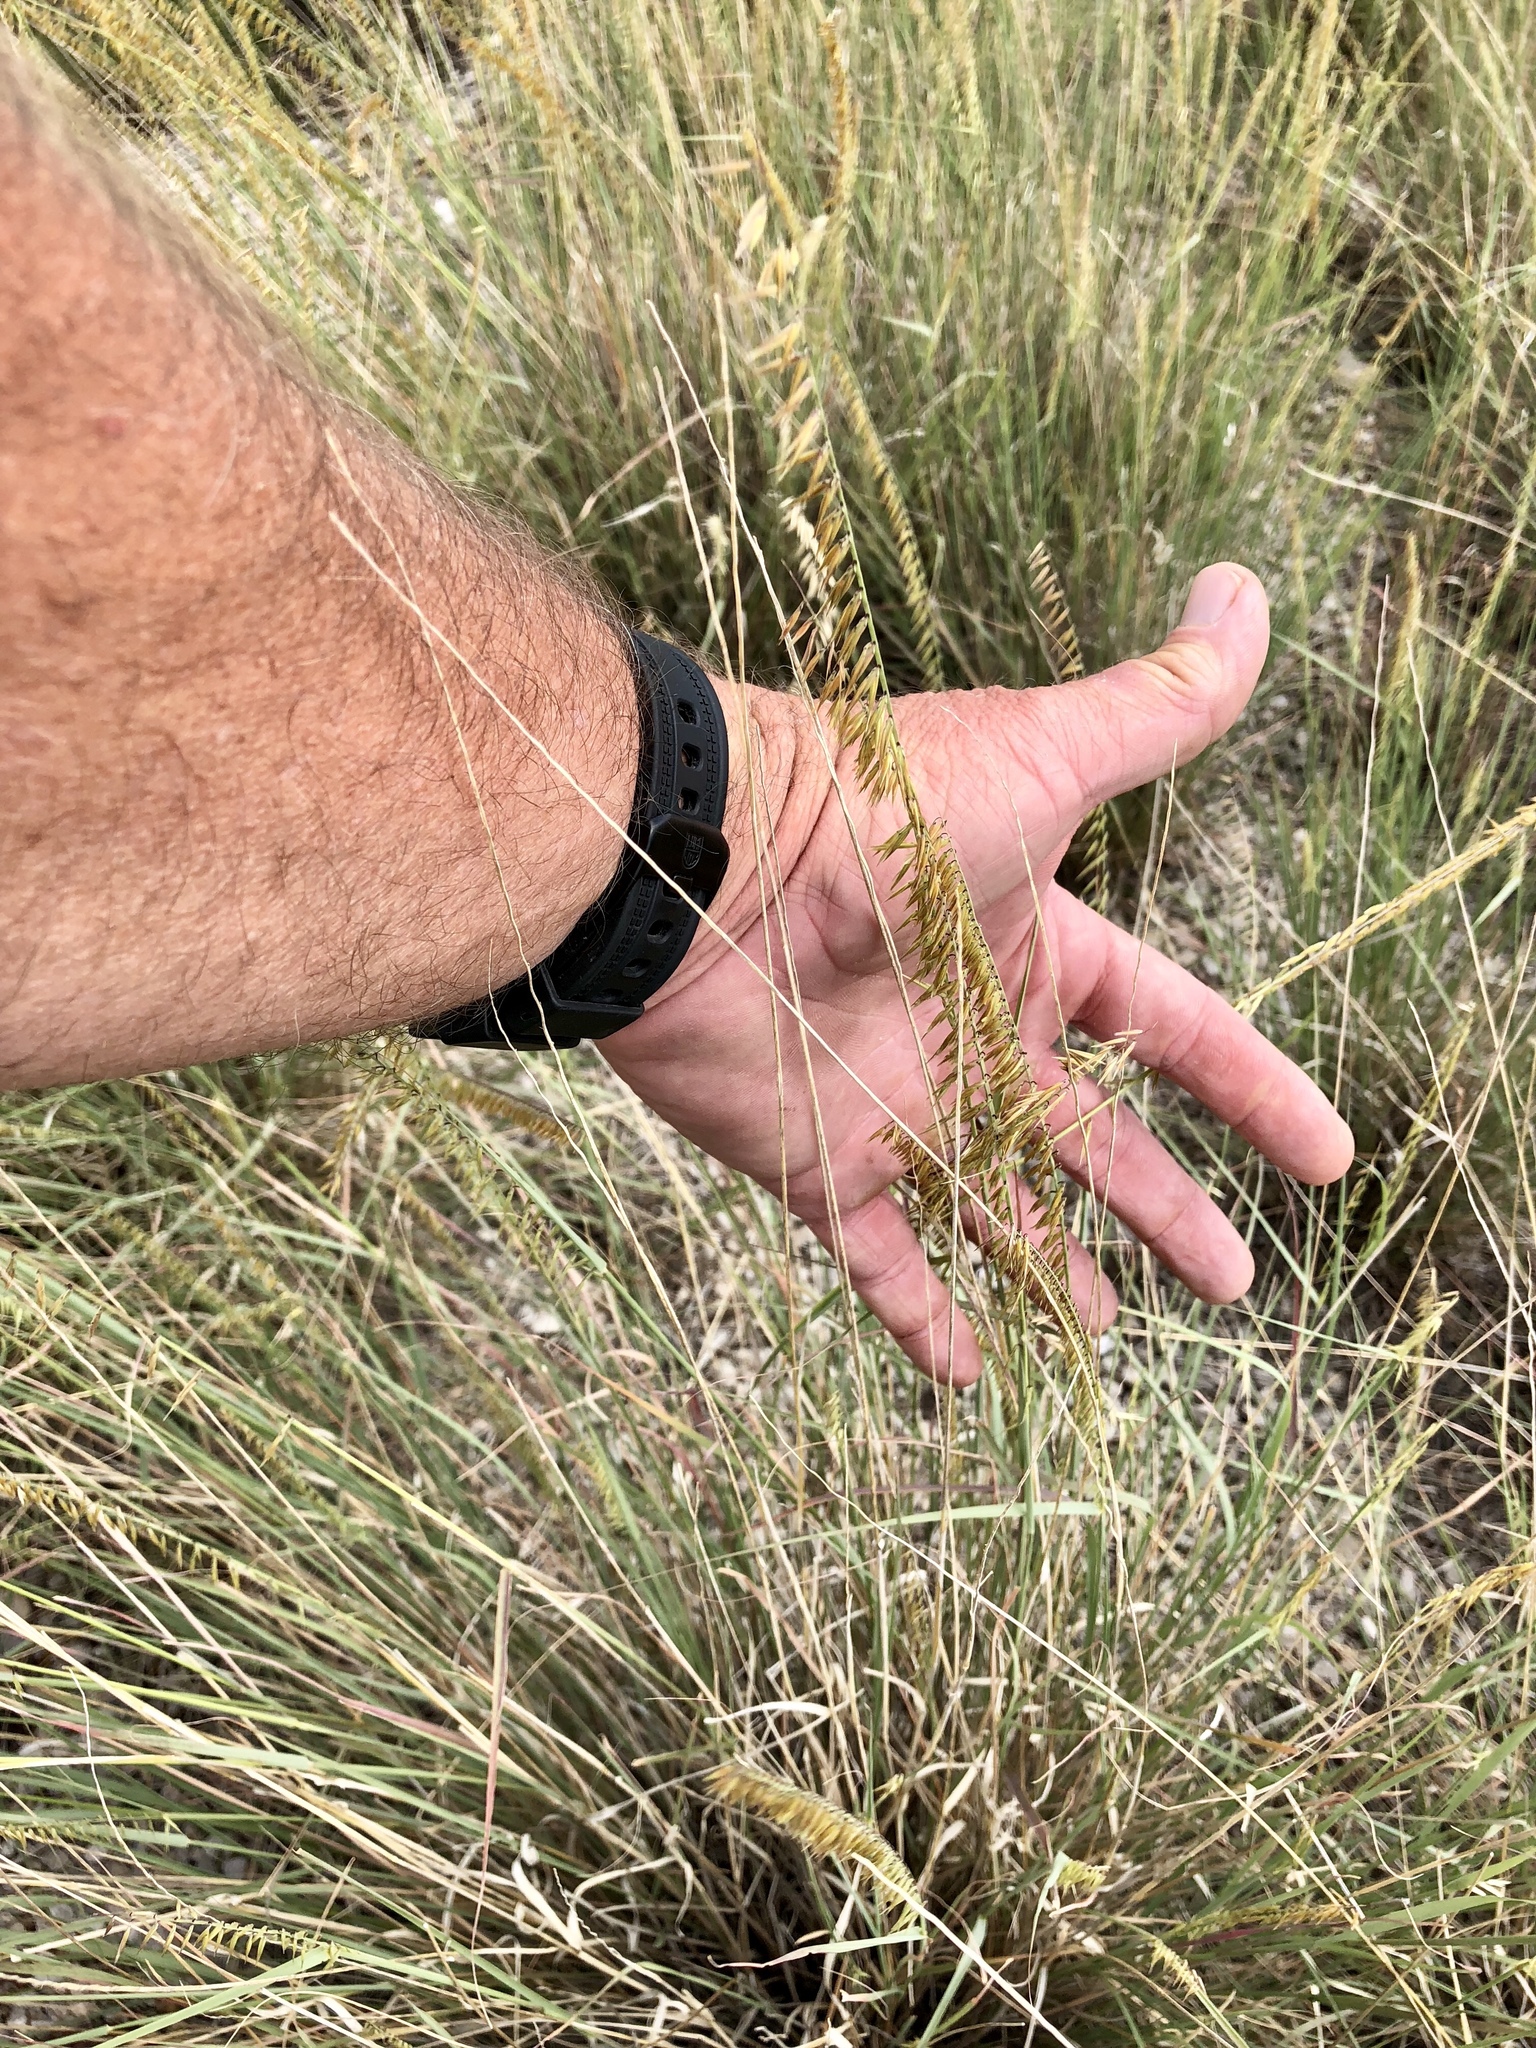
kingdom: Plantae
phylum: Tracheophyta
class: Liliopsida
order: Poales
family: Poaceae
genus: Bouteloua
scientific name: Bouteloua curtipendula
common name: Side-oats grama
